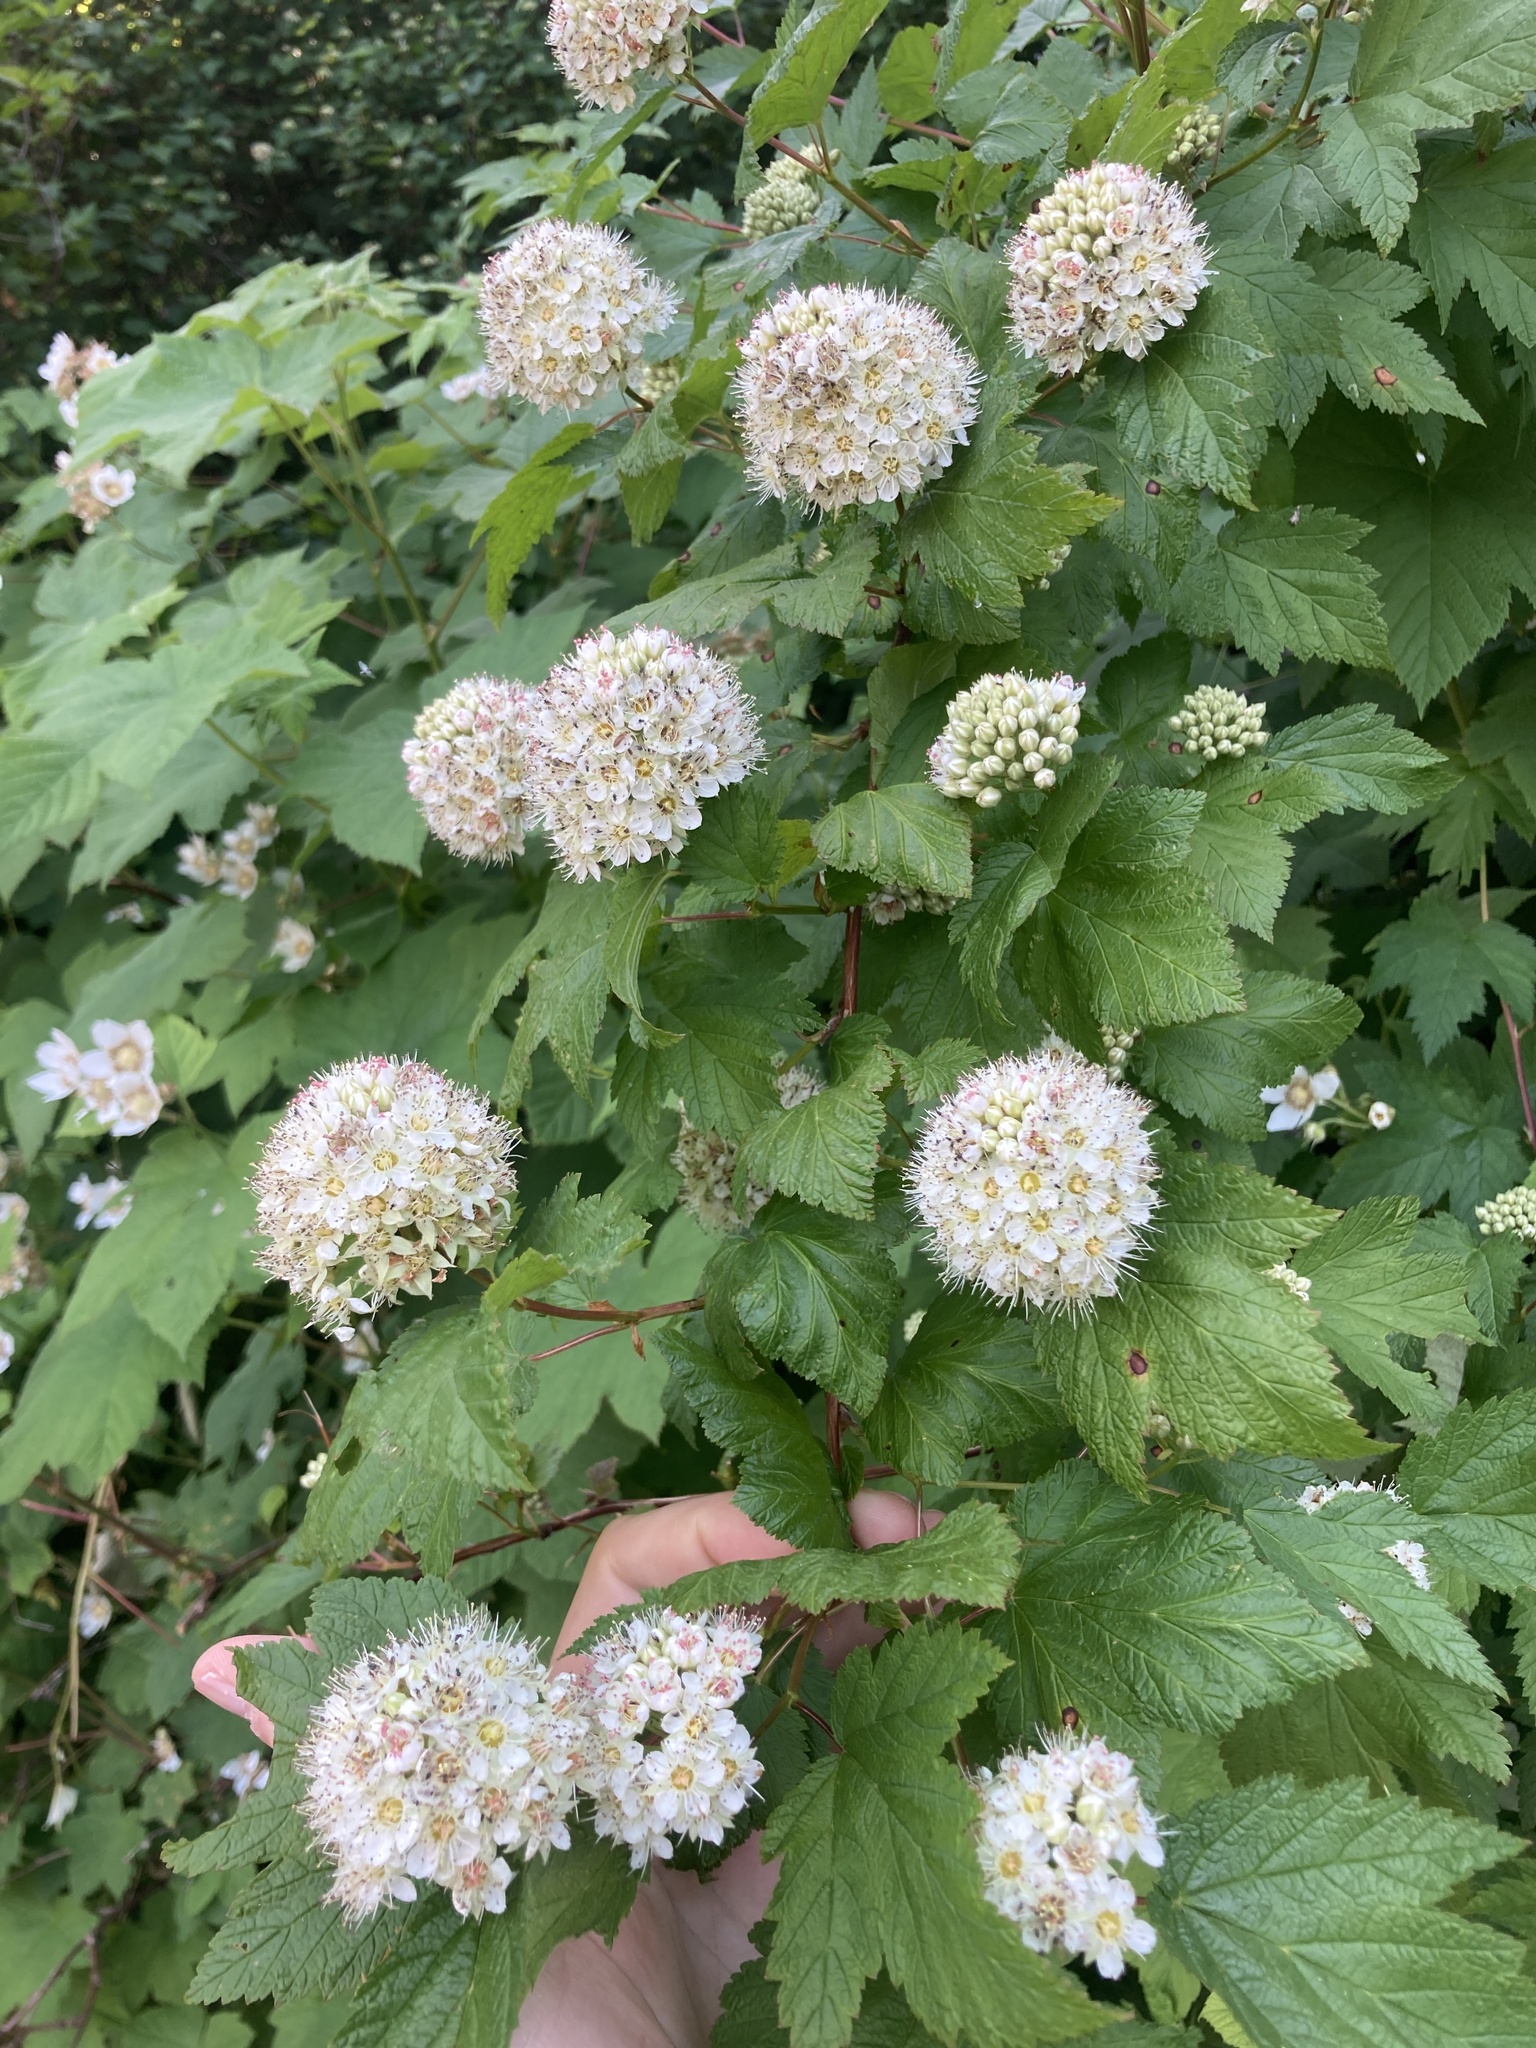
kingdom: Plantae
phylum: Tracheophyta
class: Magnoliopsida
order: Rosales
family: Rosaceae
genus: Physocarpus
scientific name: Physocarpus capitatus
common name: Pacific ninebark
